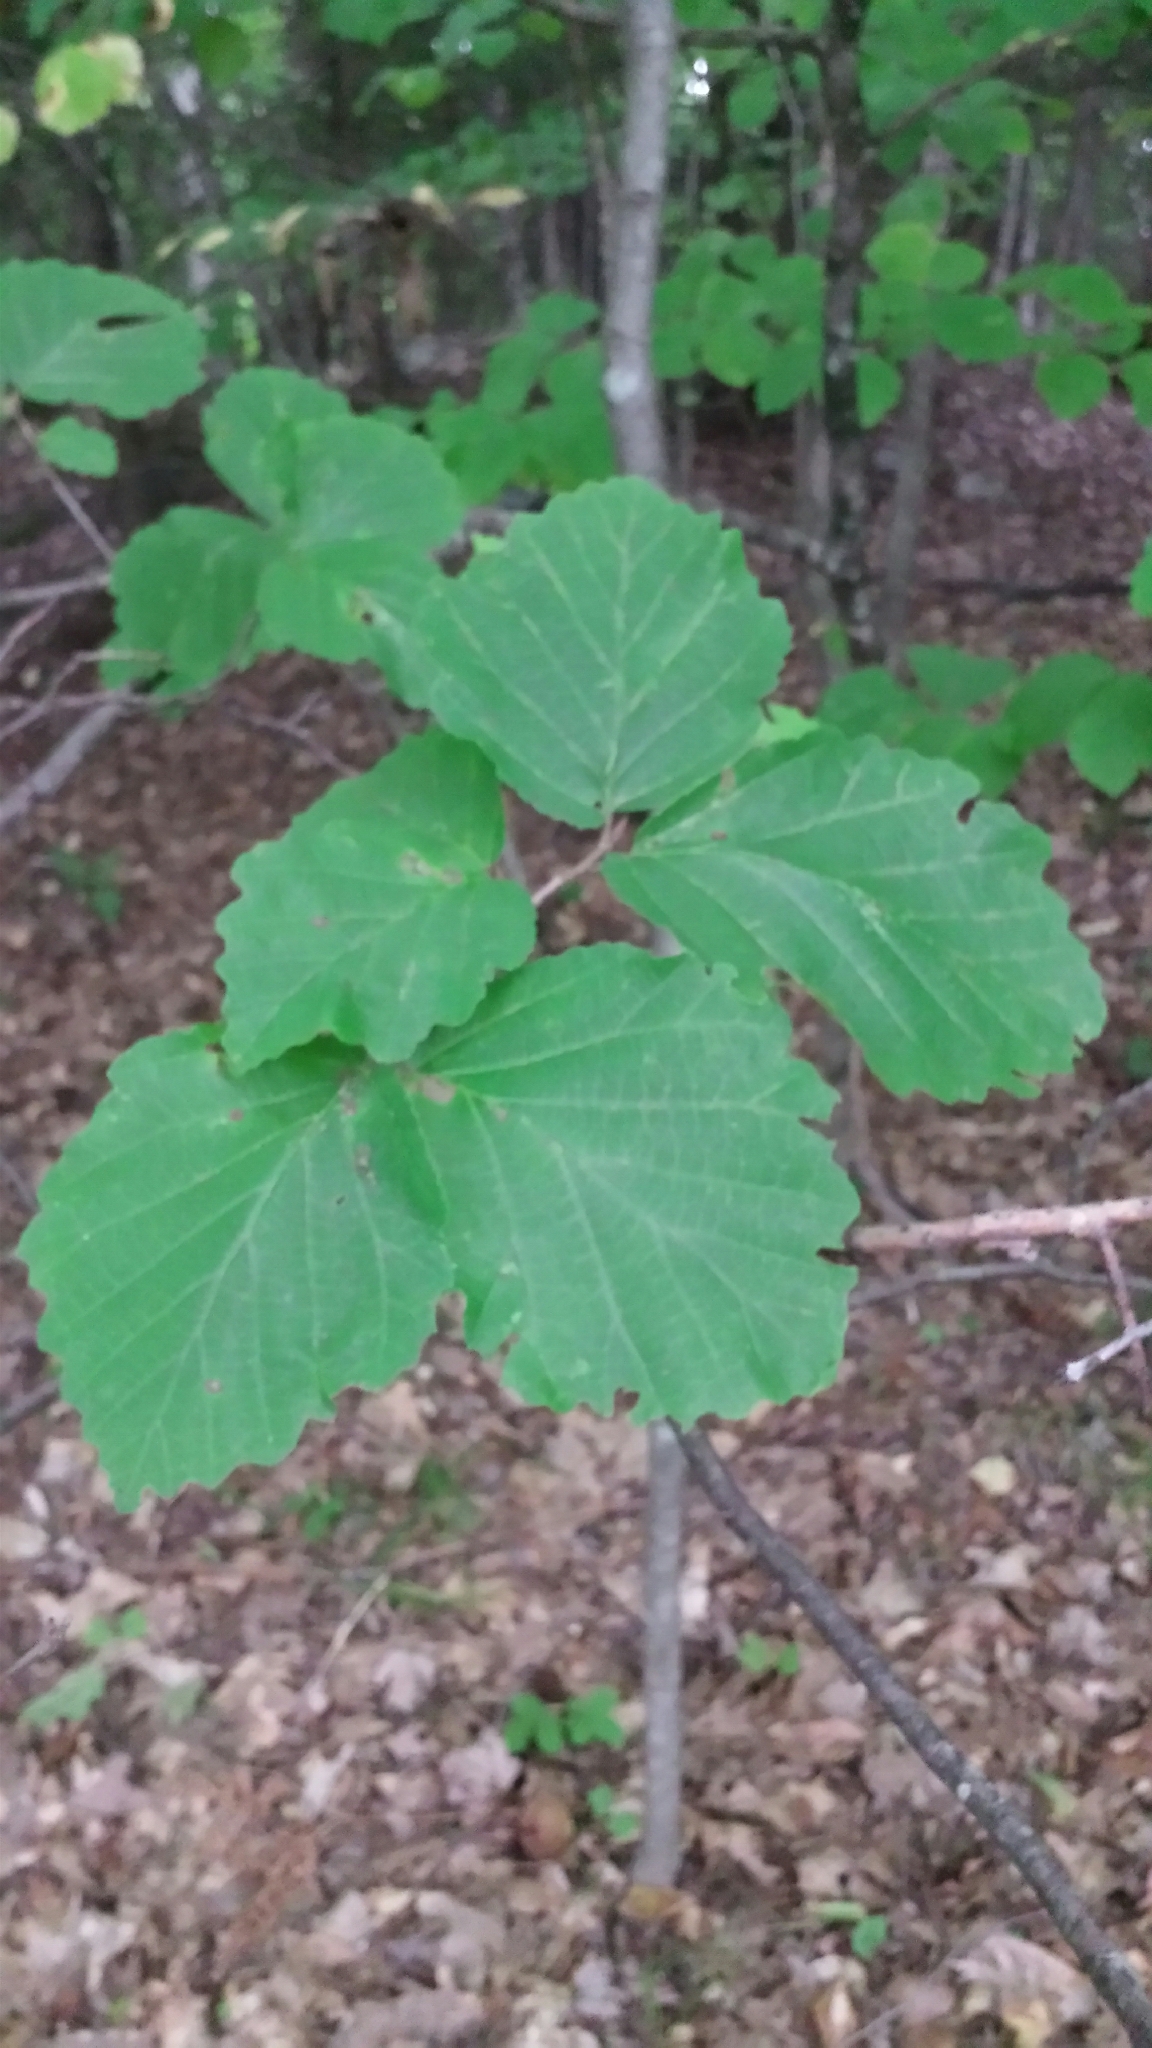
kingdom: Plantae
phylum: Tracheophyta
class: Magnoliopsida
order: Saxifragales
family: Hamamelidaceae
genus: Hamamelis
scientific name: Hamamelis virginiana
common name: Witch-hazel
